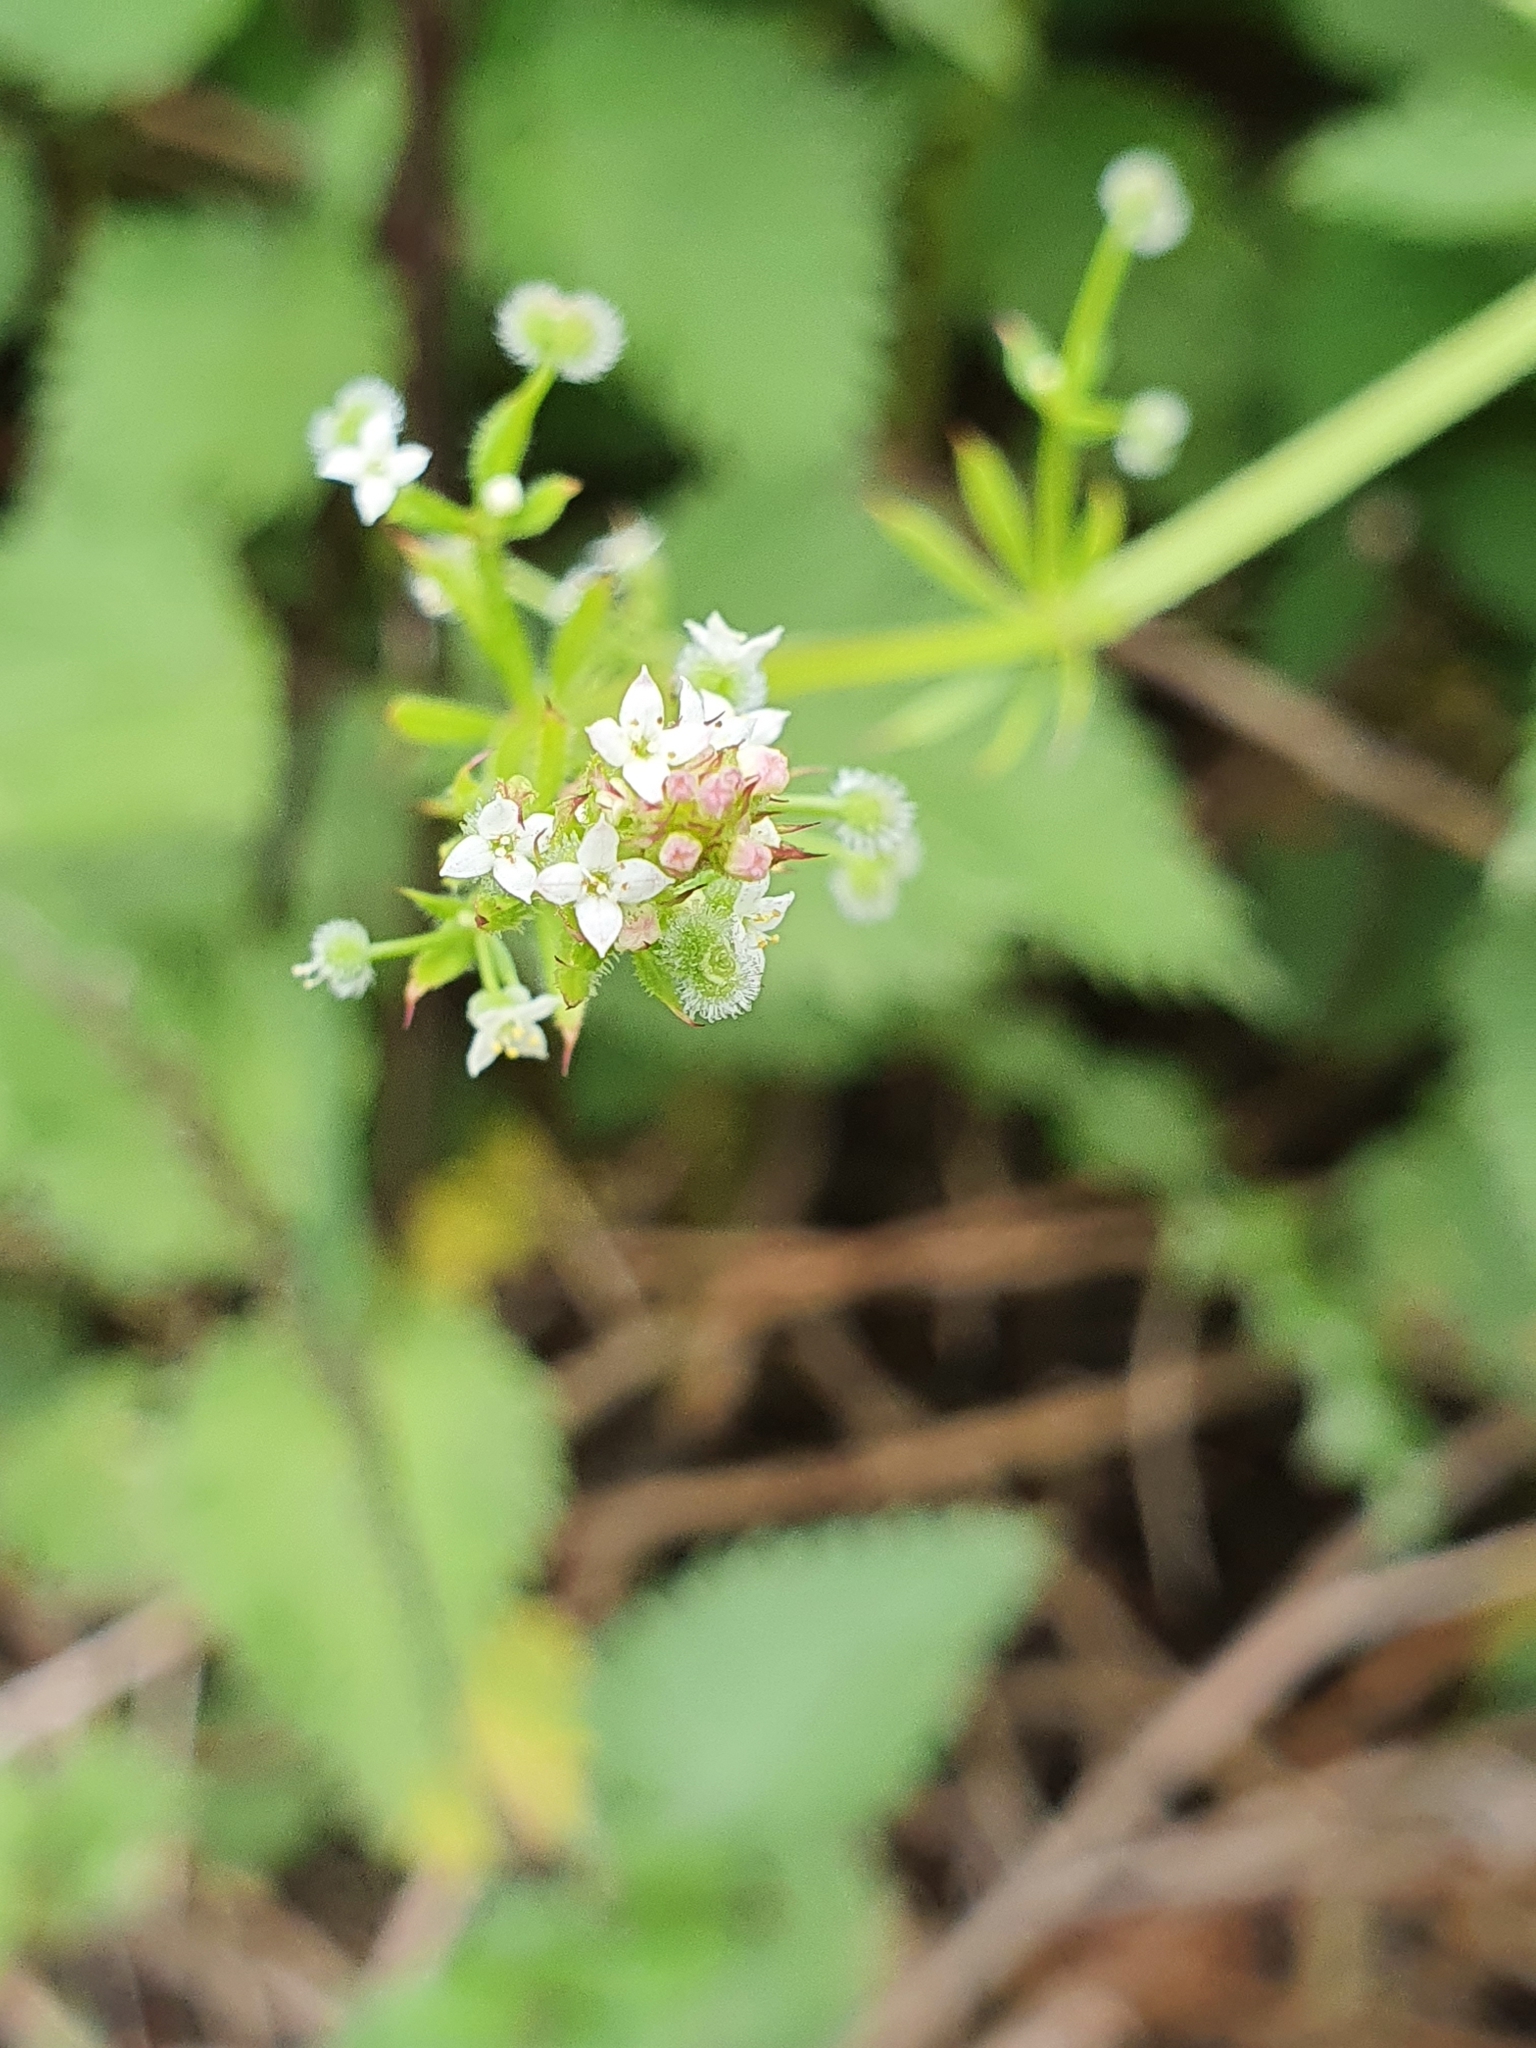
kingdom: Plantae
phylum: Tracheophyta
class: Magnoliopsida
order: Gentianales
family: Rubiaceae
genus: Galium
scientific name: Galium aparine
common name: Cleavers
